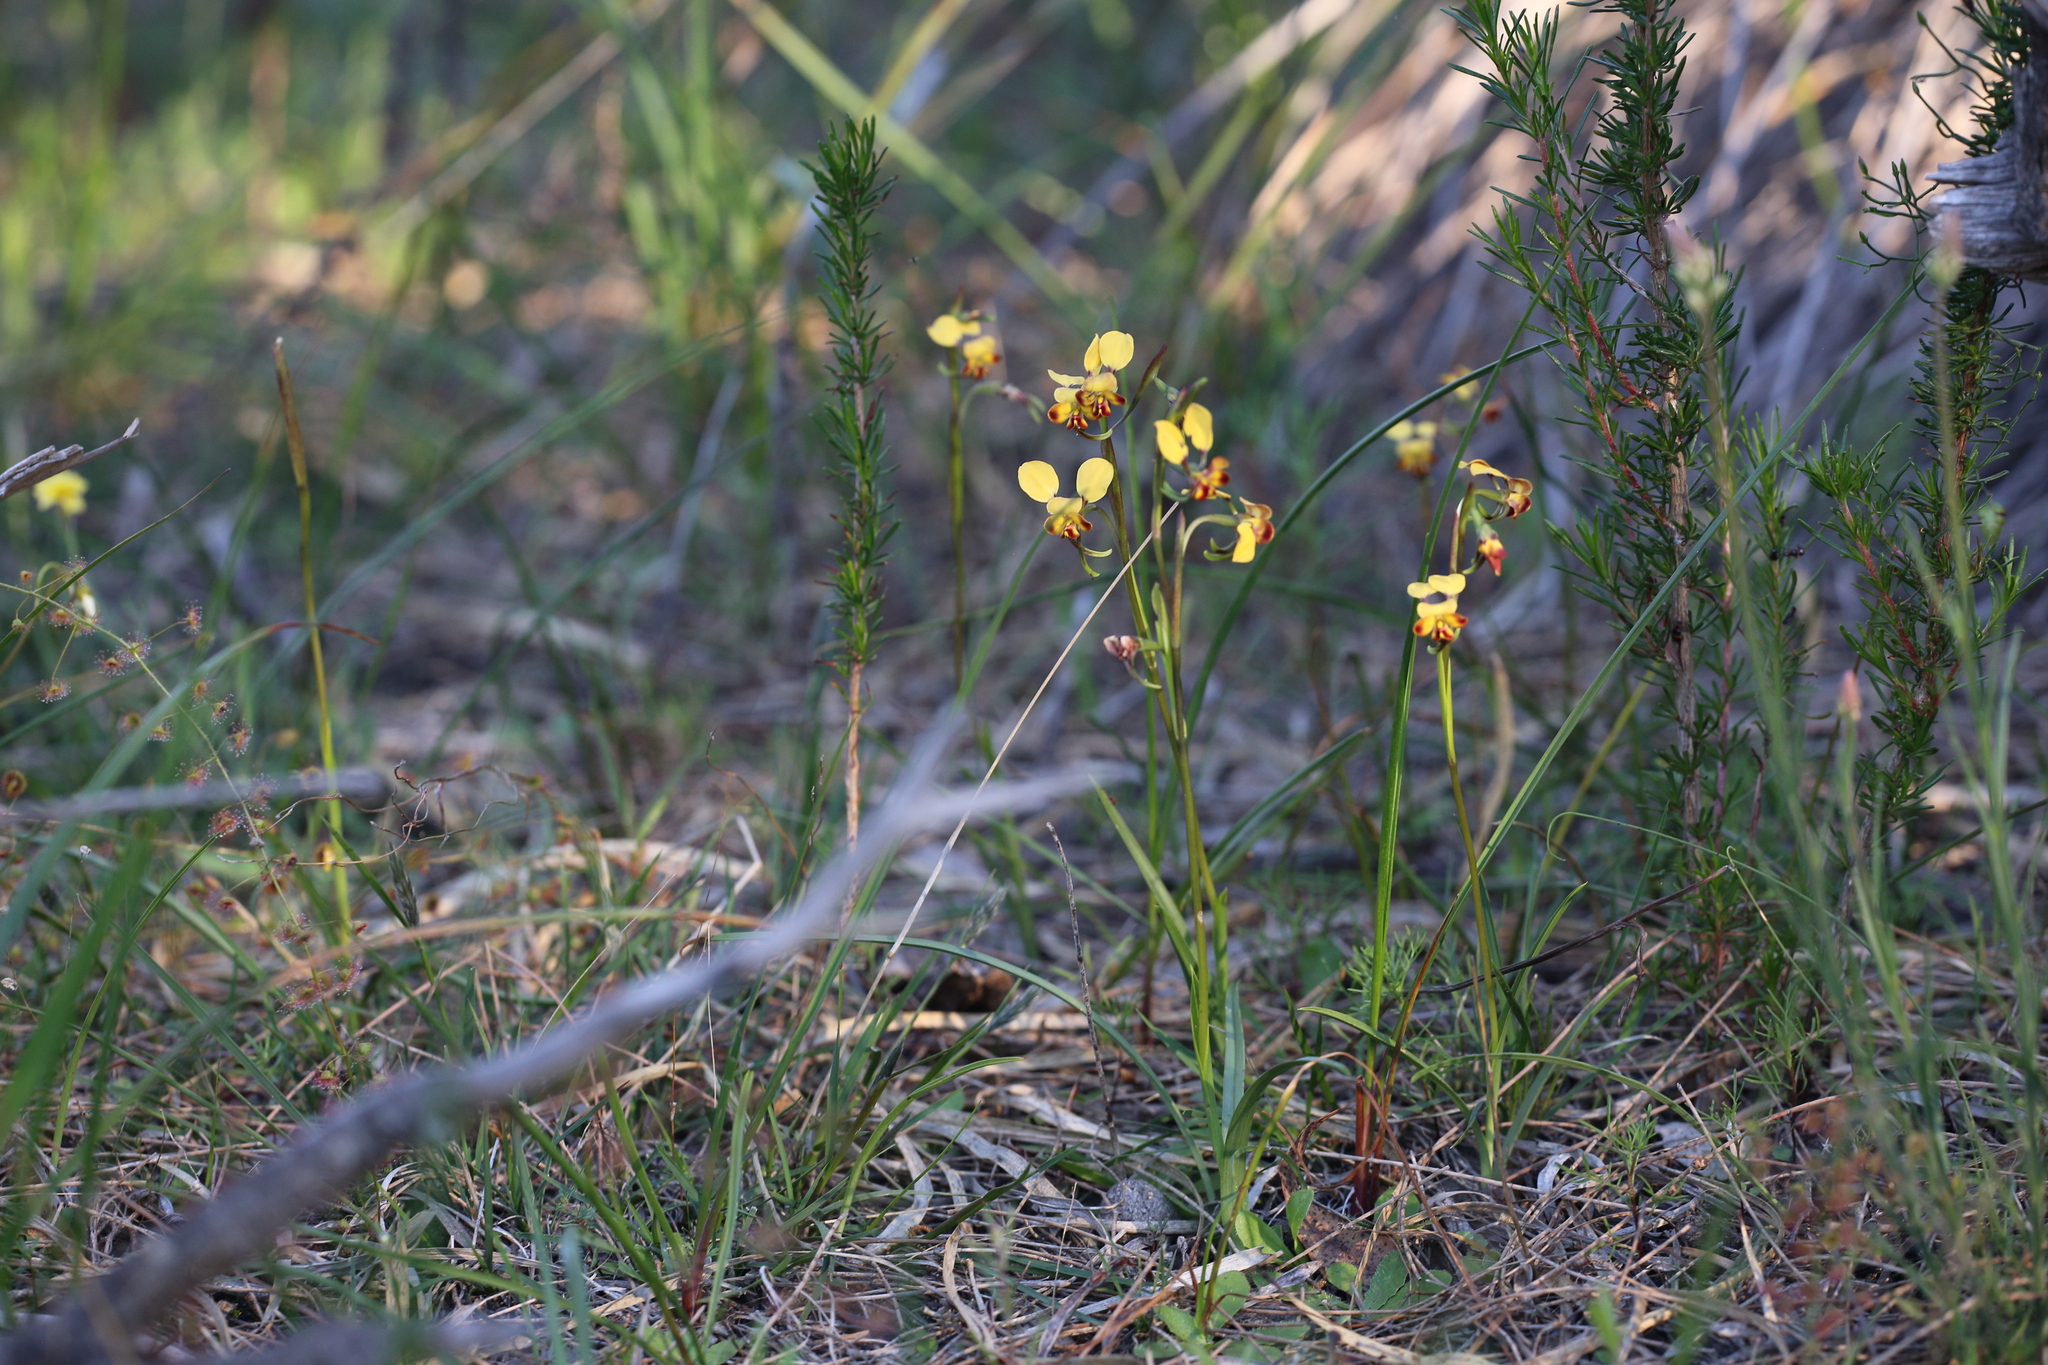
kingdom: Plantae
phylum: Tracheophyta
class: Liliopsida
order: Asparagales
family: Orchidaceae
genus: Diuris
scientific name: Diuris corymbosa
